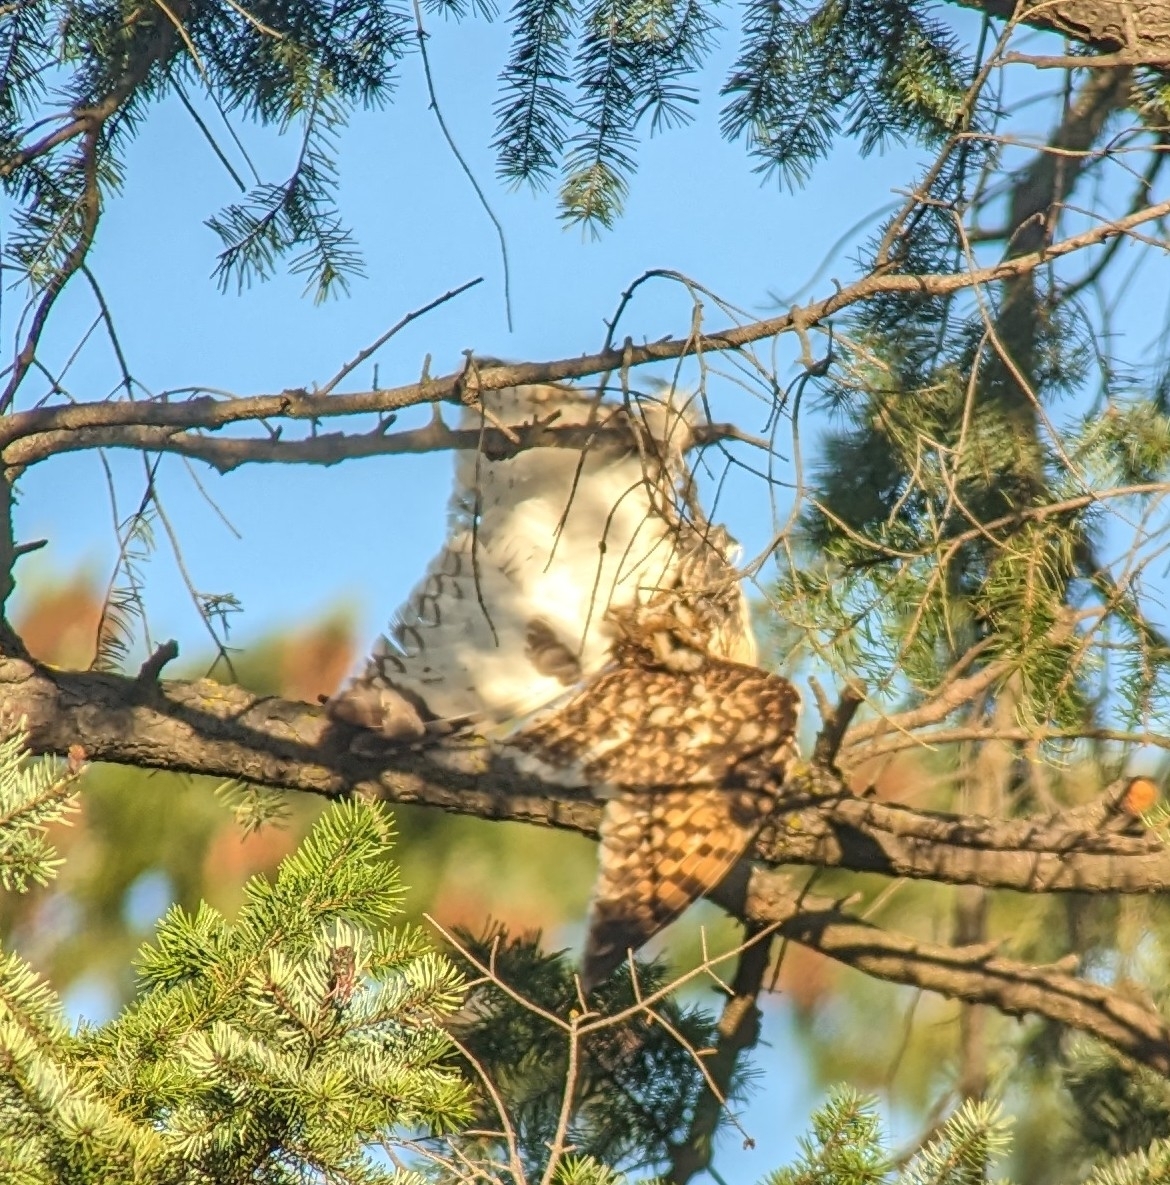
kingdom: Animalia
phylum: Chordata
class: Aves
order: Strigiformes
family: Strigidae
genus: Asio
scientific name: Asio flammeus
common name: Short-eared owl
